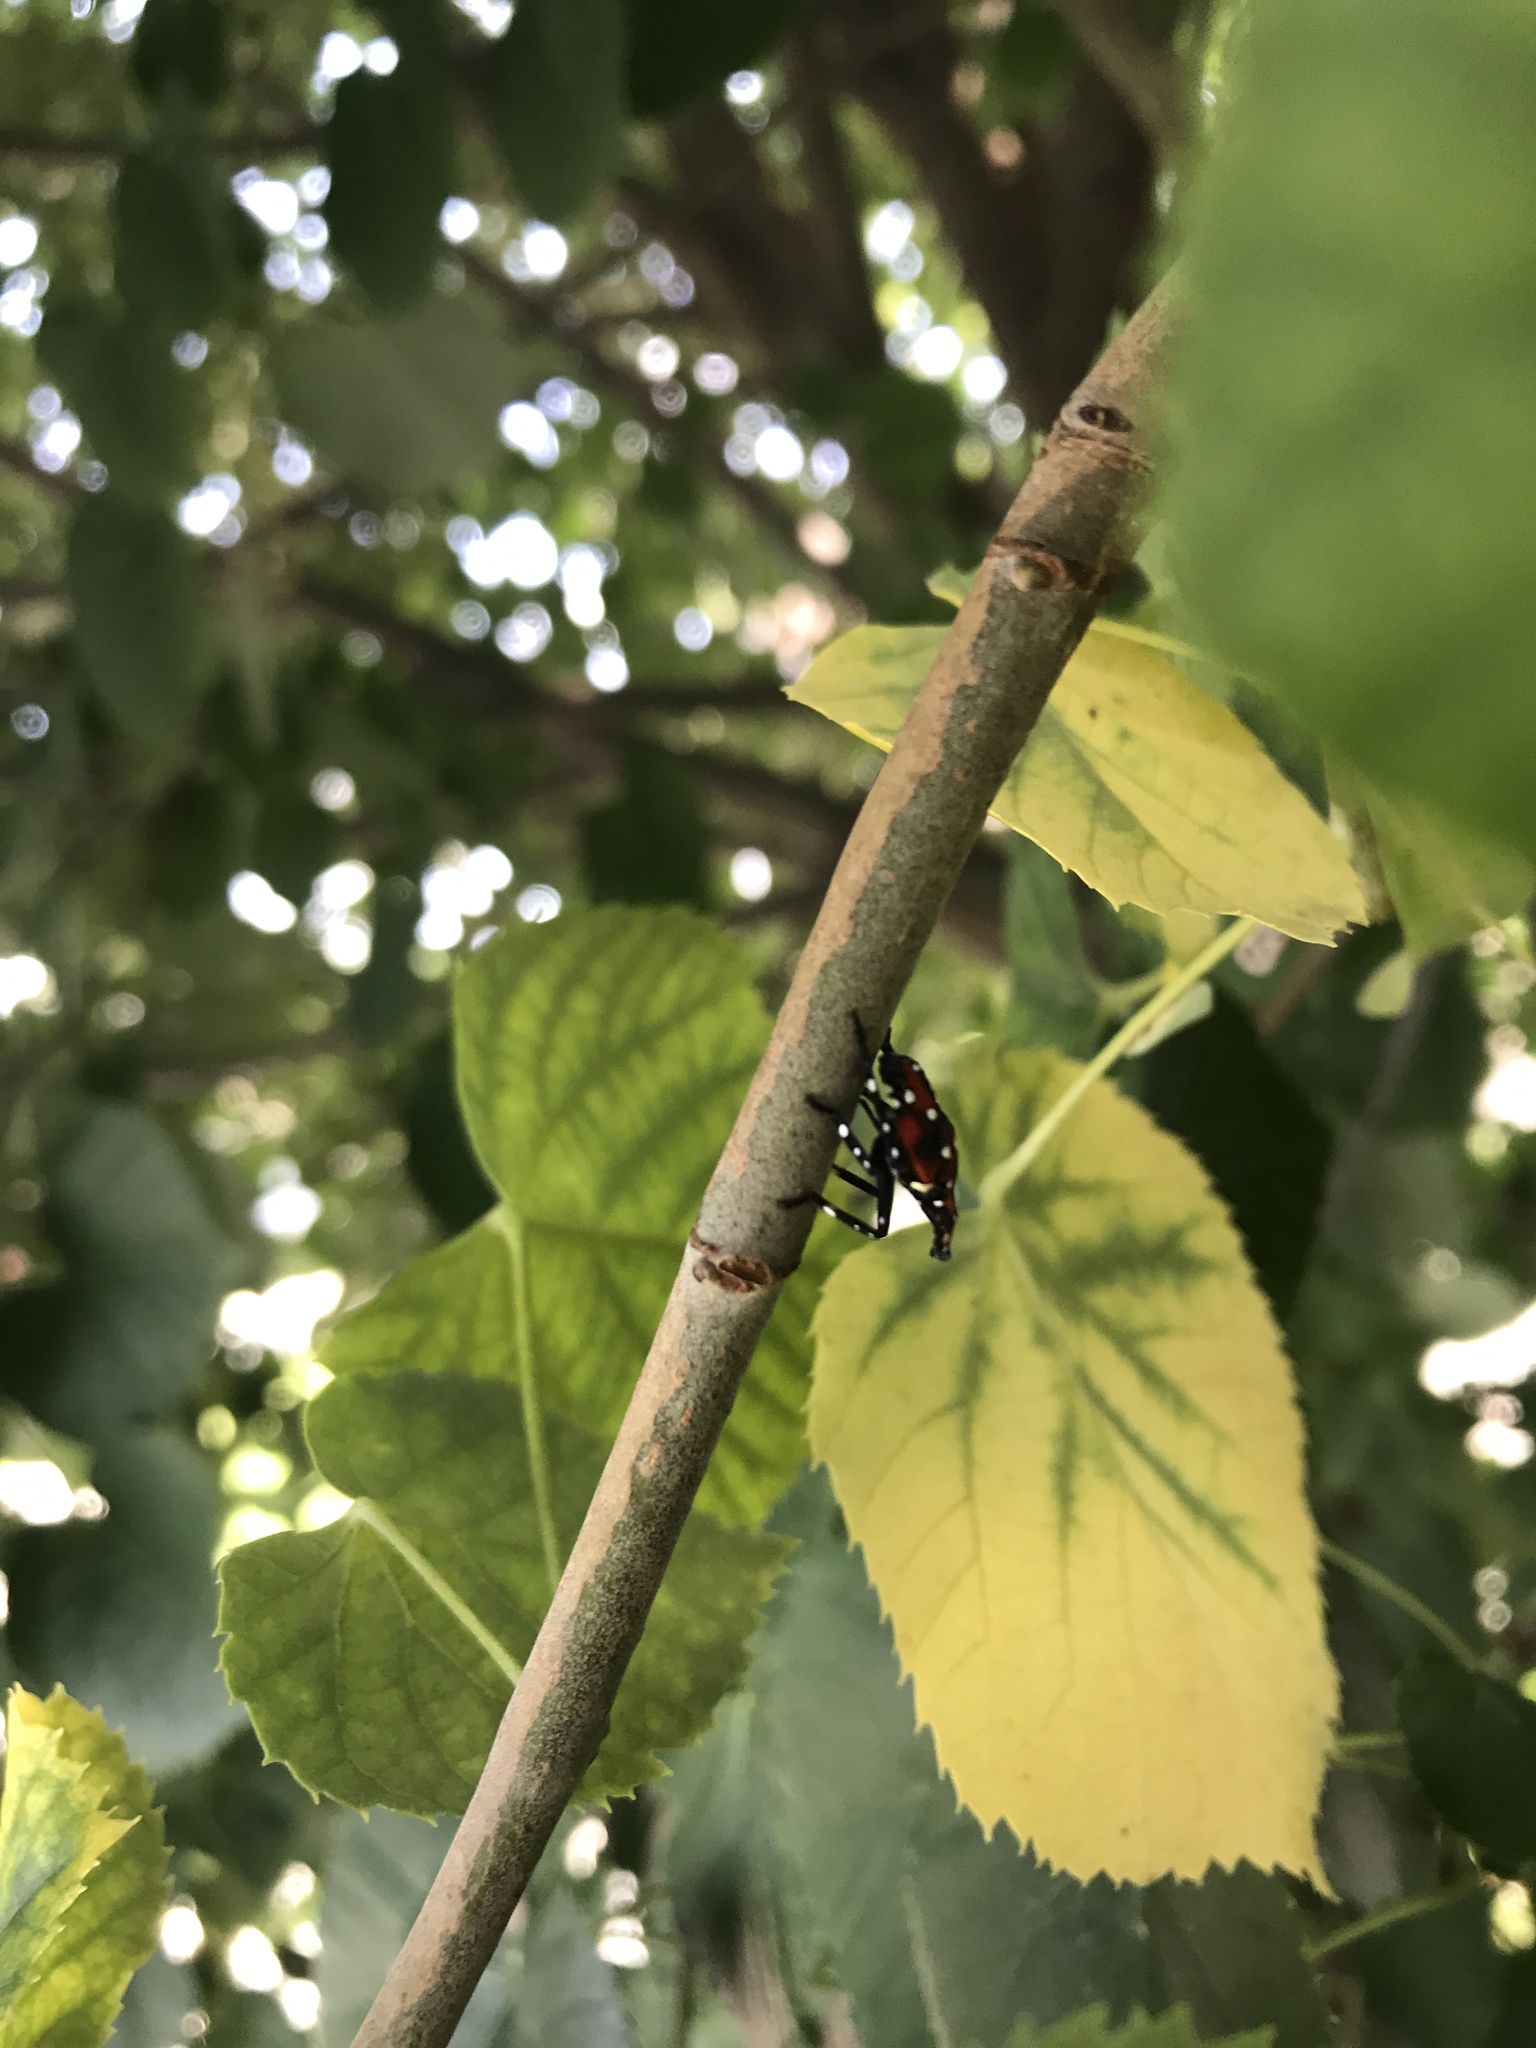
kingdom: Animalia
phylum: Arthropoda
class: Insecta
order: Hemiptera
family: Fulgoridae
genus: Lycorma
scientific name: Lycorma delicatula
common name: Spotted lanternfly
